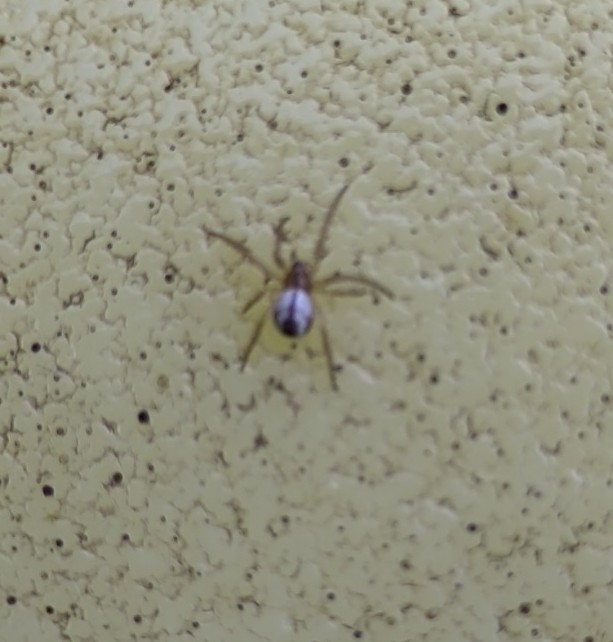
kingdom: Animalia
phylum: Arthropoda
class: Arachnida
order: Araneae
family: Araneidae
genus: Mangora
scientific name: Mangora acalypha
